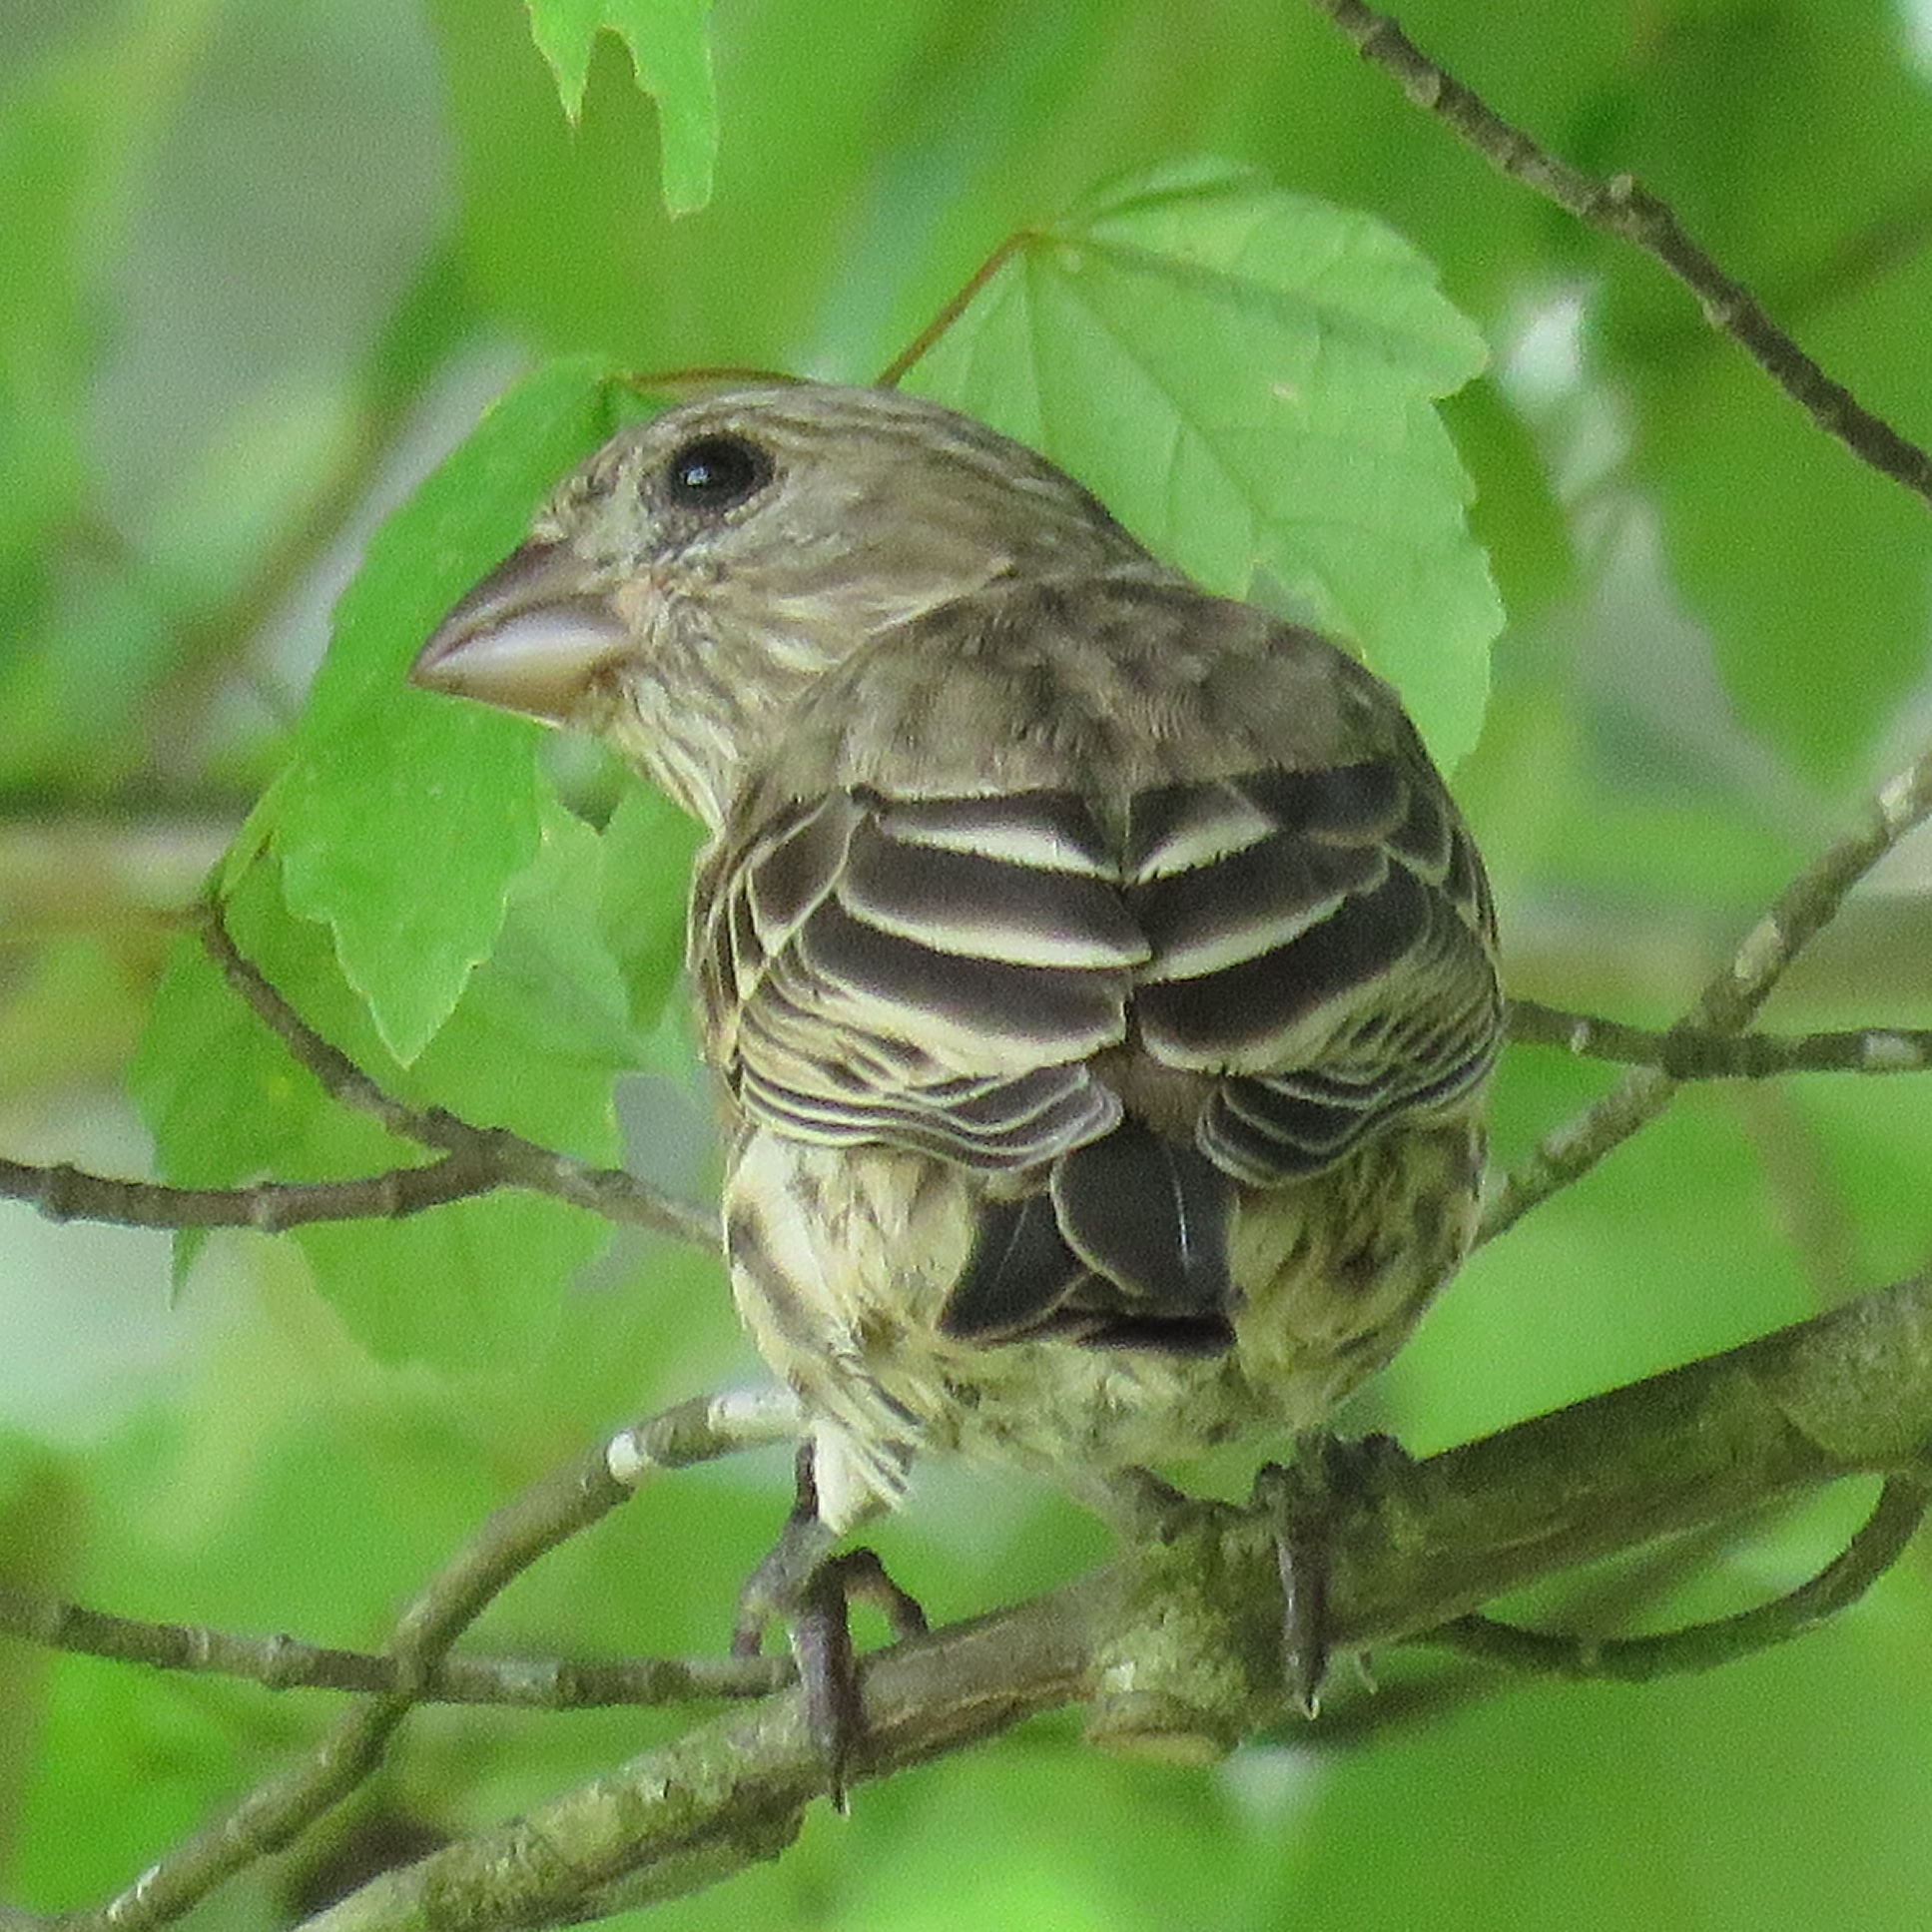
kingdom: Animalia
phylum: Chordata
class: Aves
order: Passeriformes
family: Fringillidae
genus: Haemorhous
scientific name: Haemorhous mexicanus
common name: House finch
